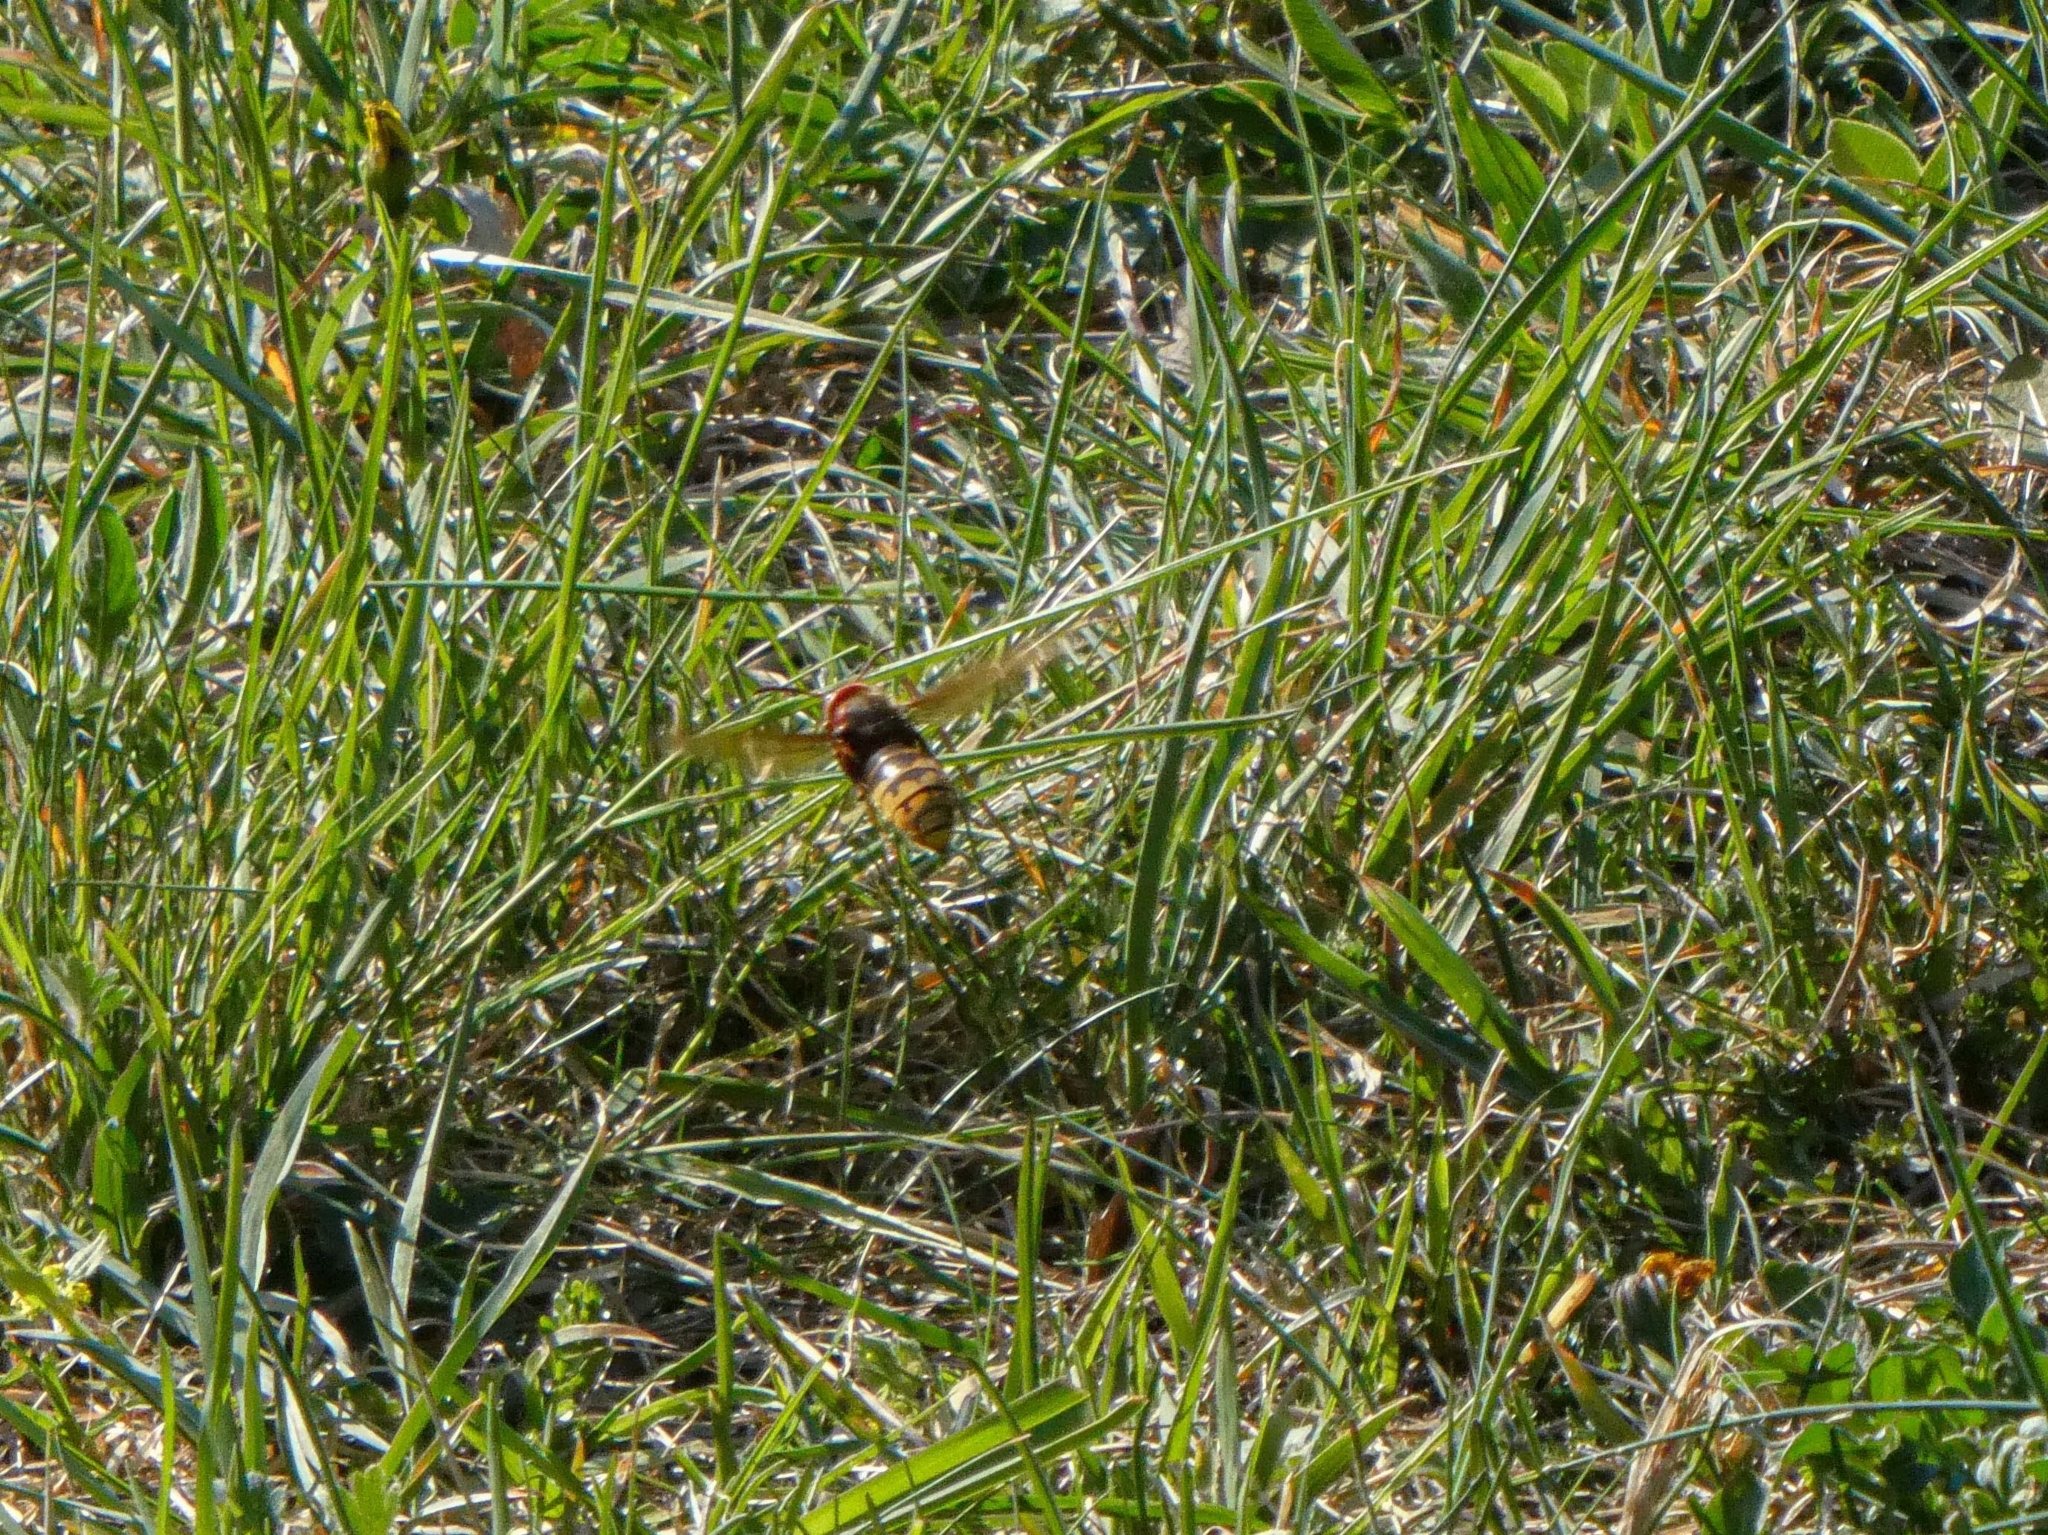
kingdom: Animalia
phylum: Arthropoda
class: Insecta
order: Hymenoptera
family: Vespidae
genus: Vespa
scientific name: Vespa crabro
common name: Hornet
